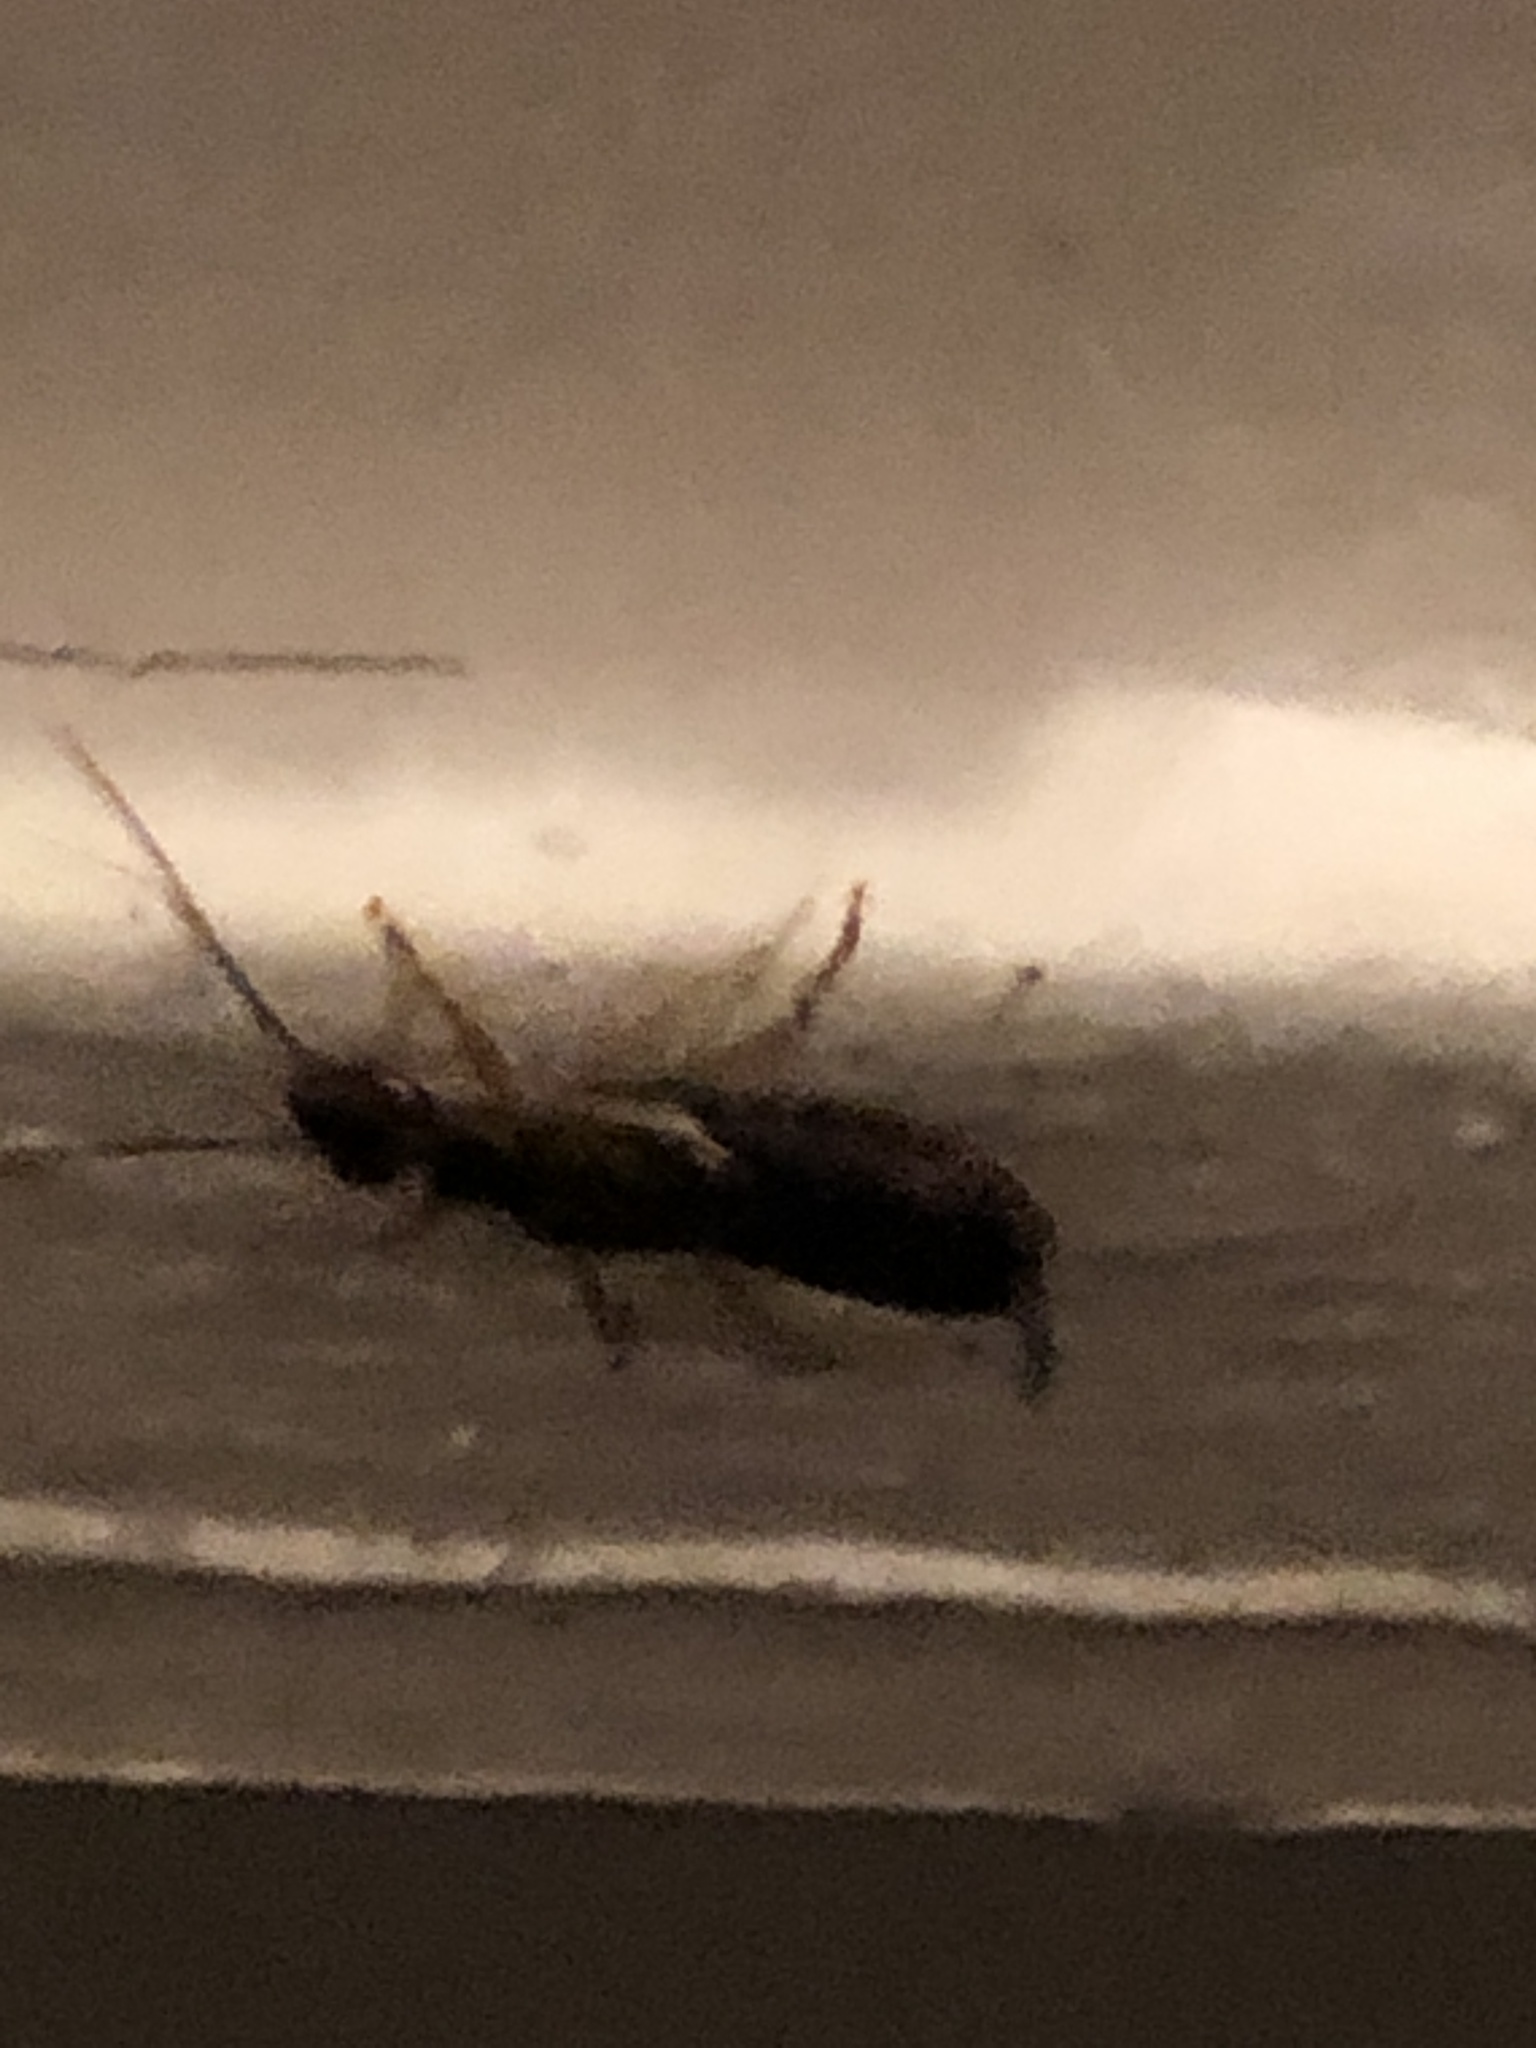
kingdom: Animalia
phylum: Arthropoda
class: Insecta
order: Dermaptera
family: Forficulidae
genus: Forficula
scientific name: Forficula
